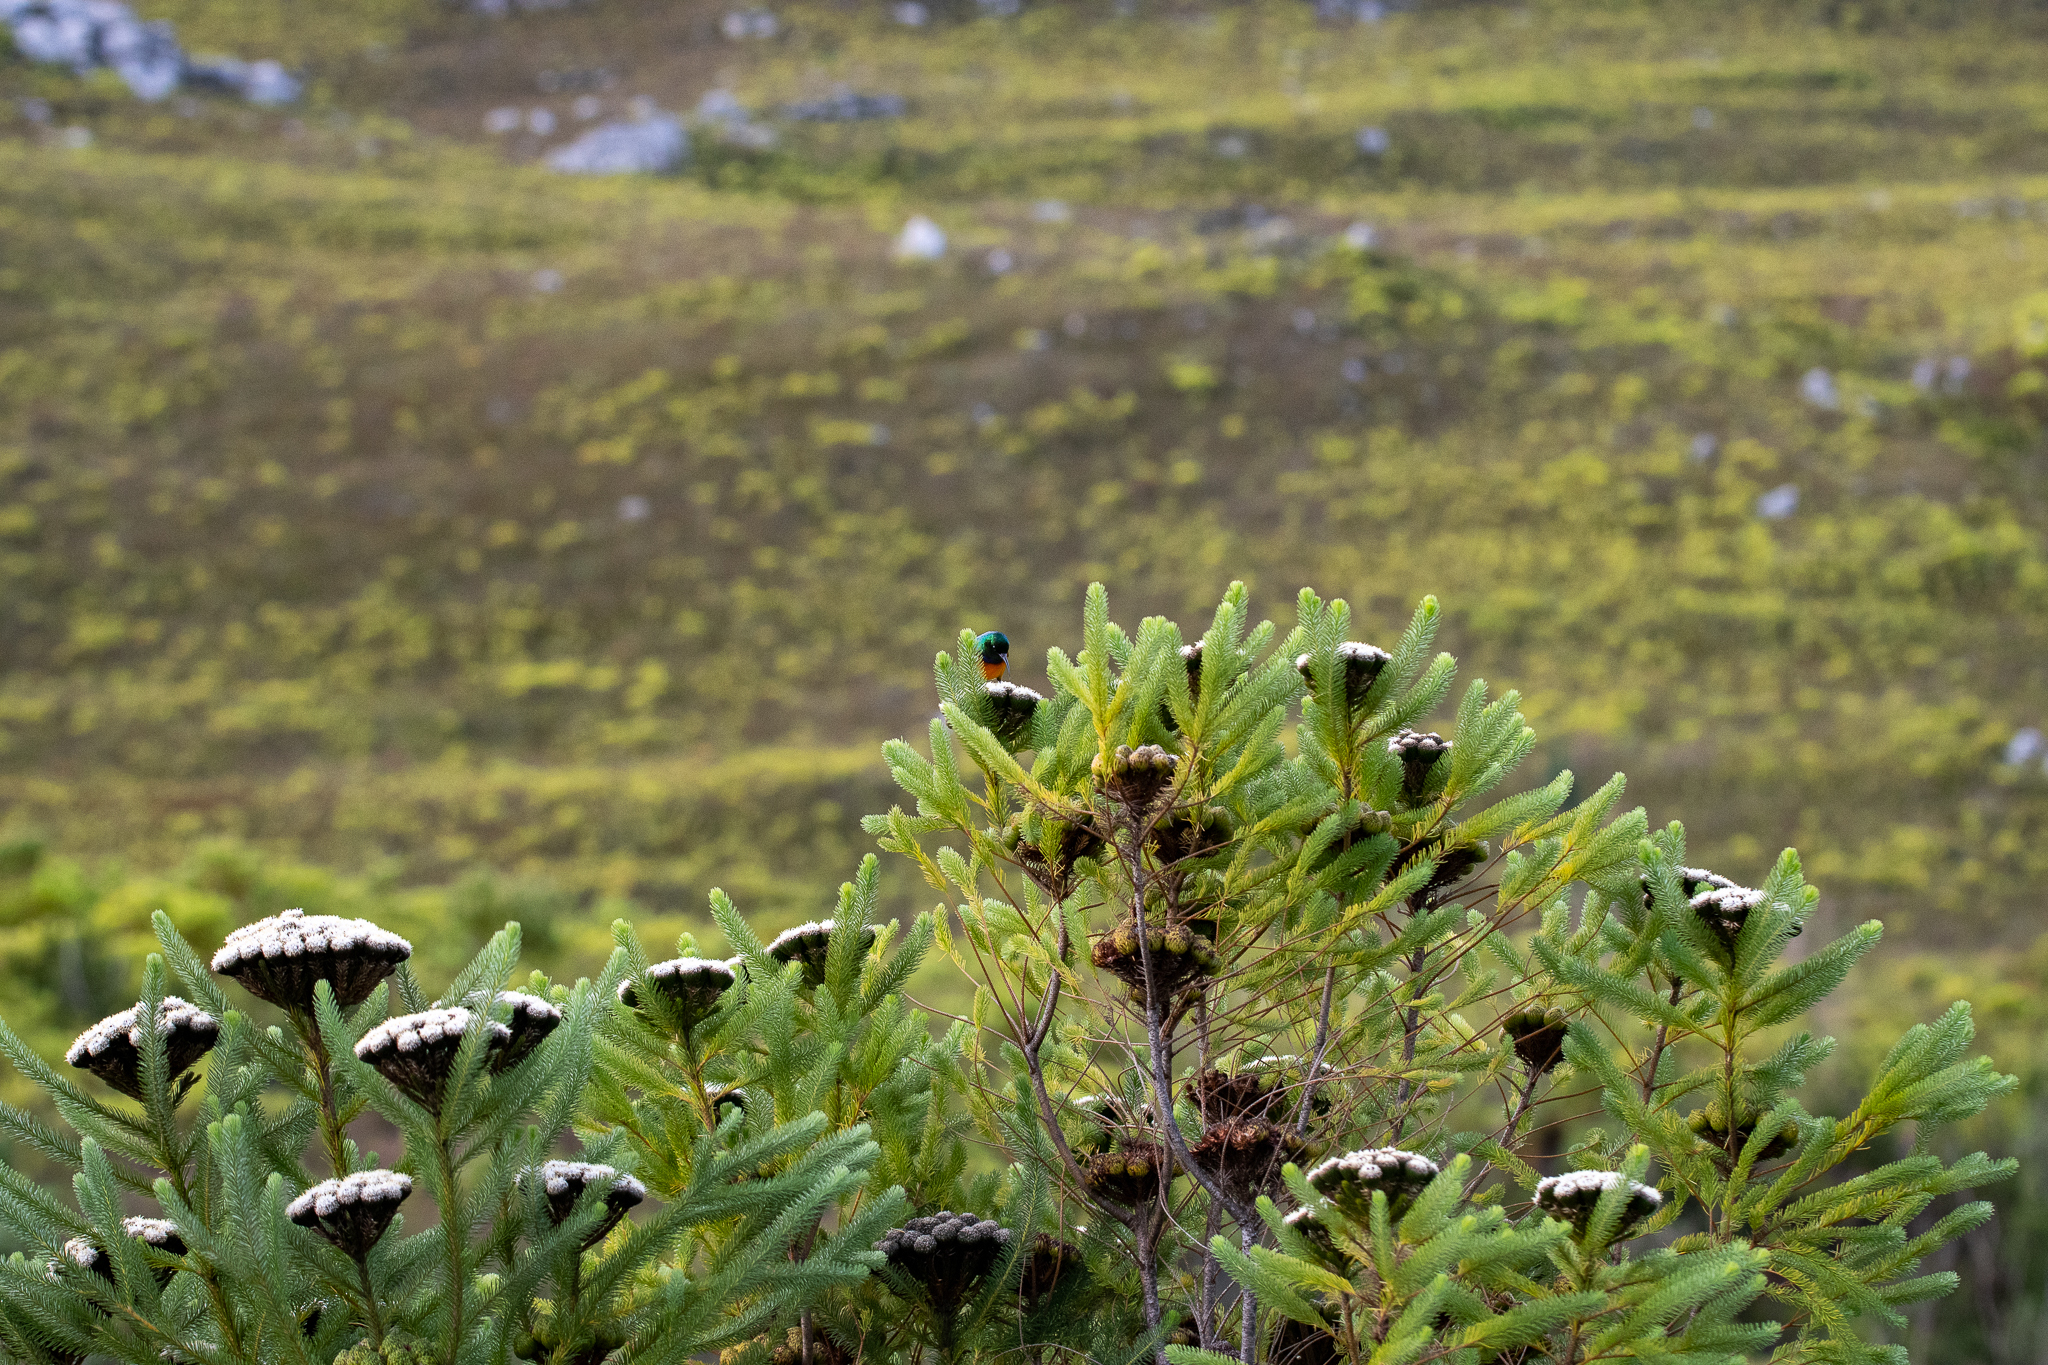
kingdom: Plantae
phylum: Tracheophyta
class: Magnoliopsida
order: Bruniales
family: Bruniaceae
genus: Berzelia
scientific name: Berzelia albiflora
